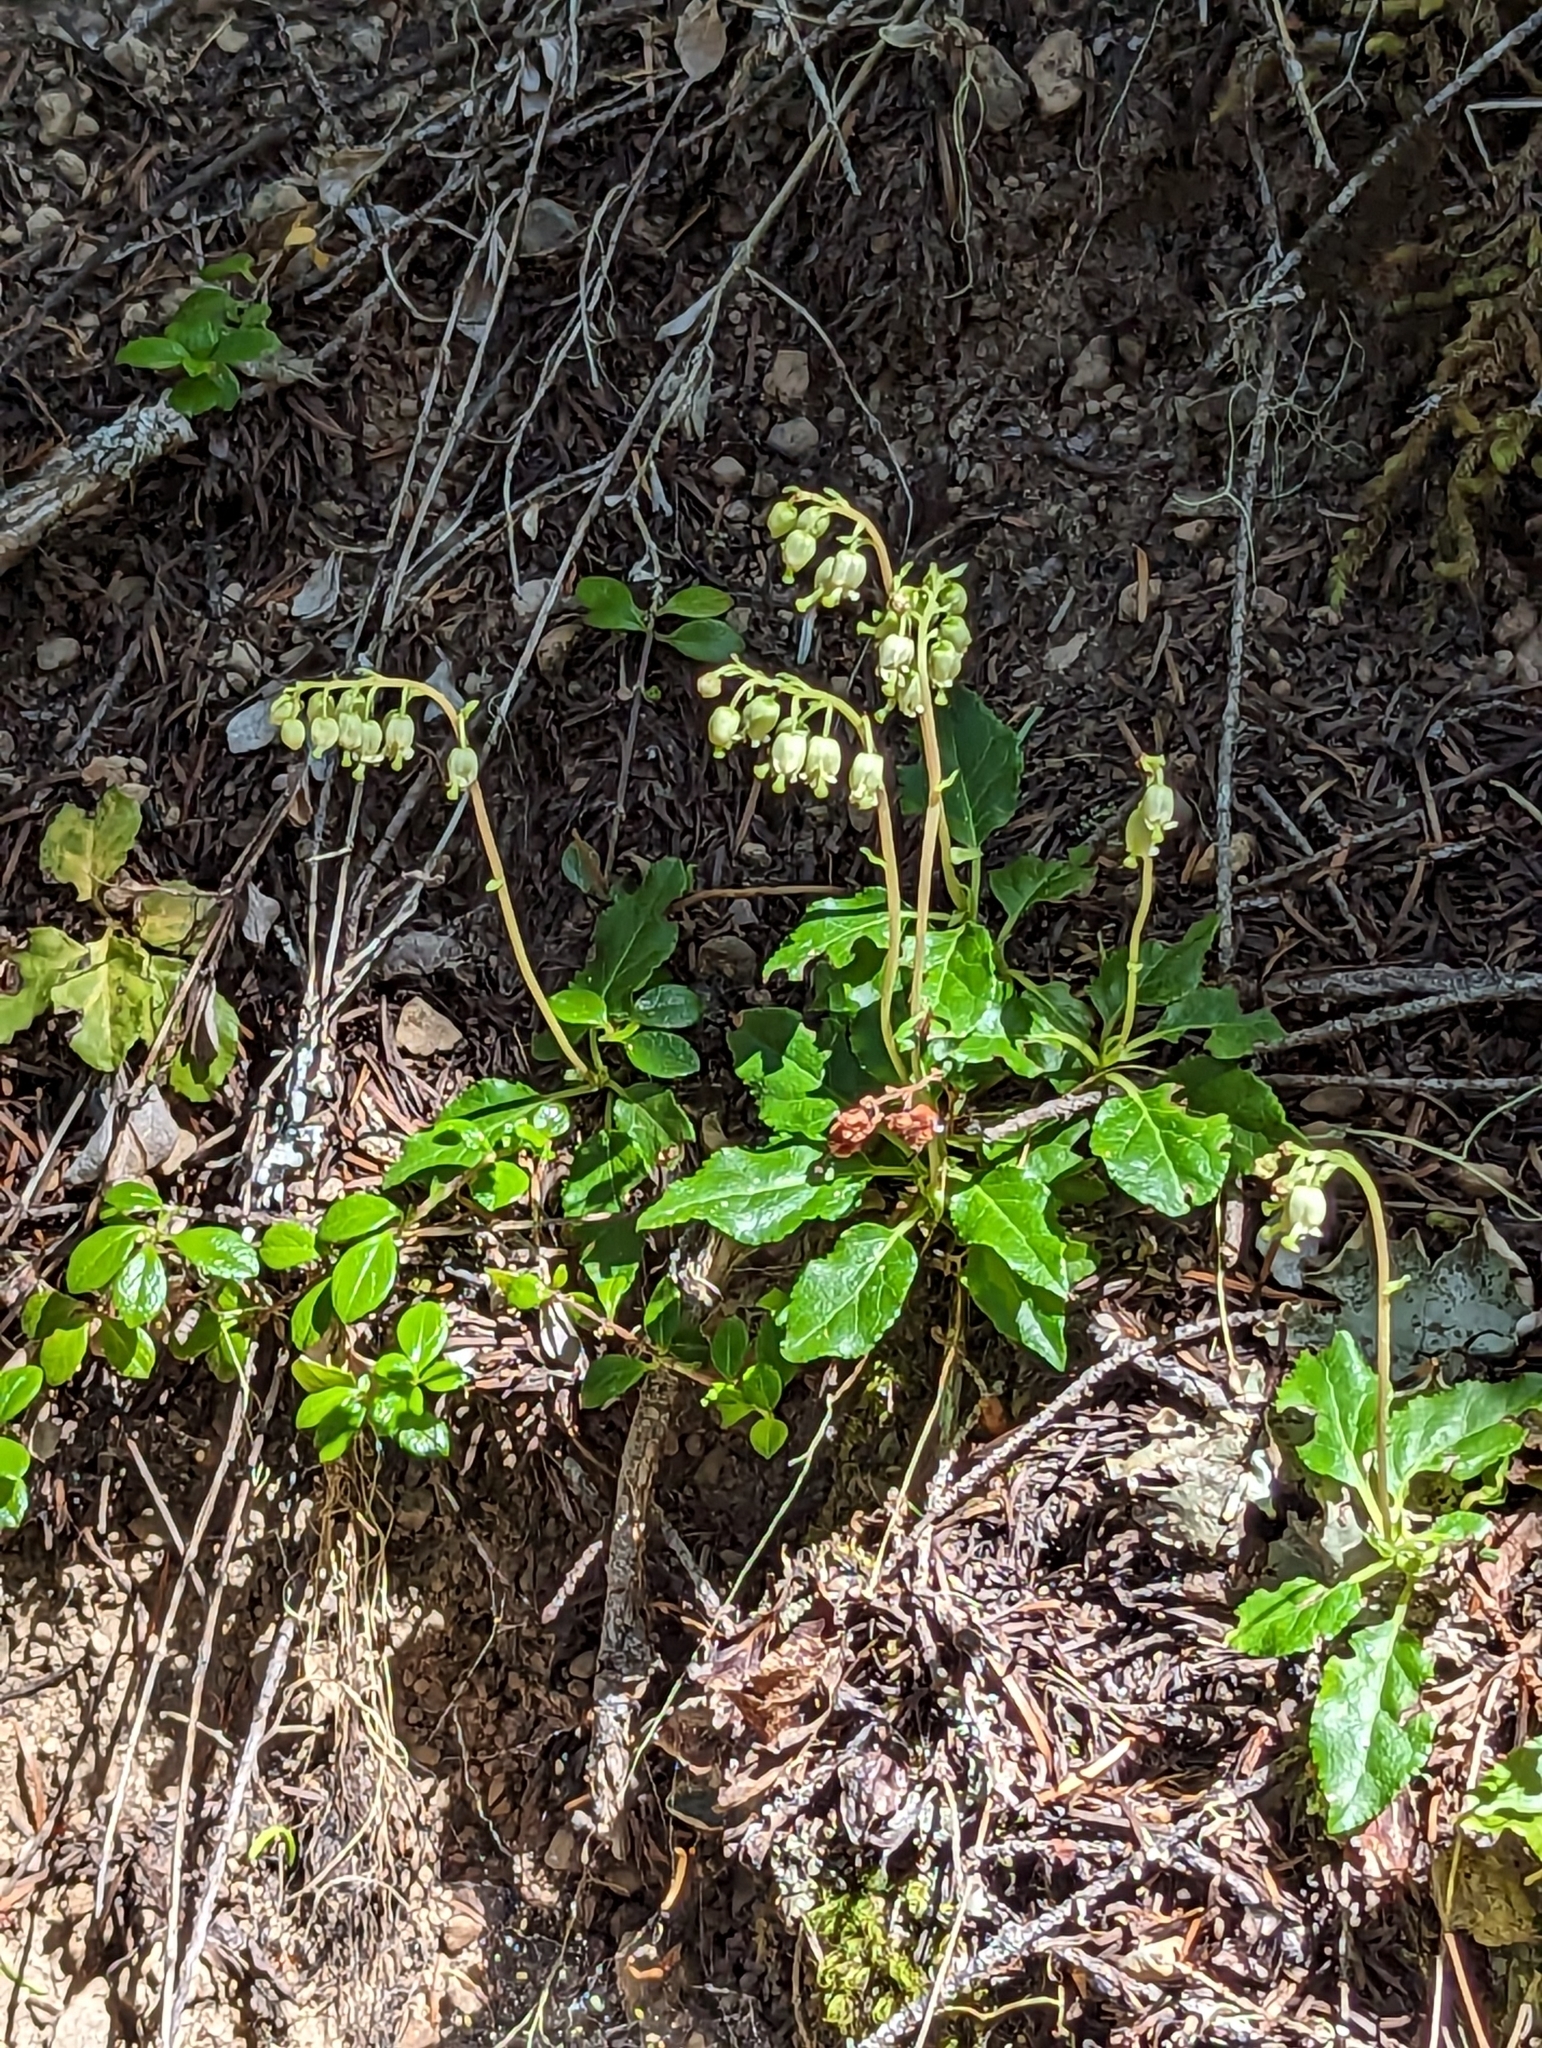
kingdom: Plantae
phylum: Tracheophyta
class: Magnoliopsida
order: Ericales
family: Ericaceae
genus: Orthilia
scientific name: Orthilia secunda
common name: One-sided orthilia
